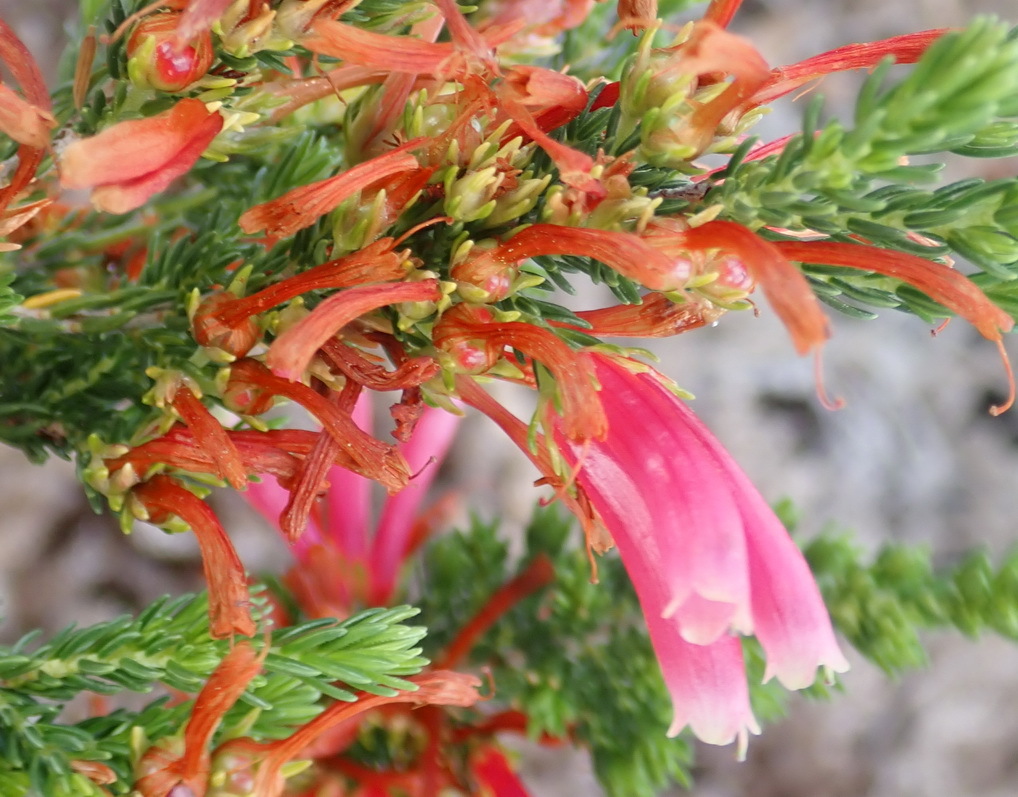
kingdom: Plantae
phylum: Tracheophyta
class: Magnoliopsida
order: Ericales
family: Ericaceae
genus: Erica
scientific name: Erica discolor
